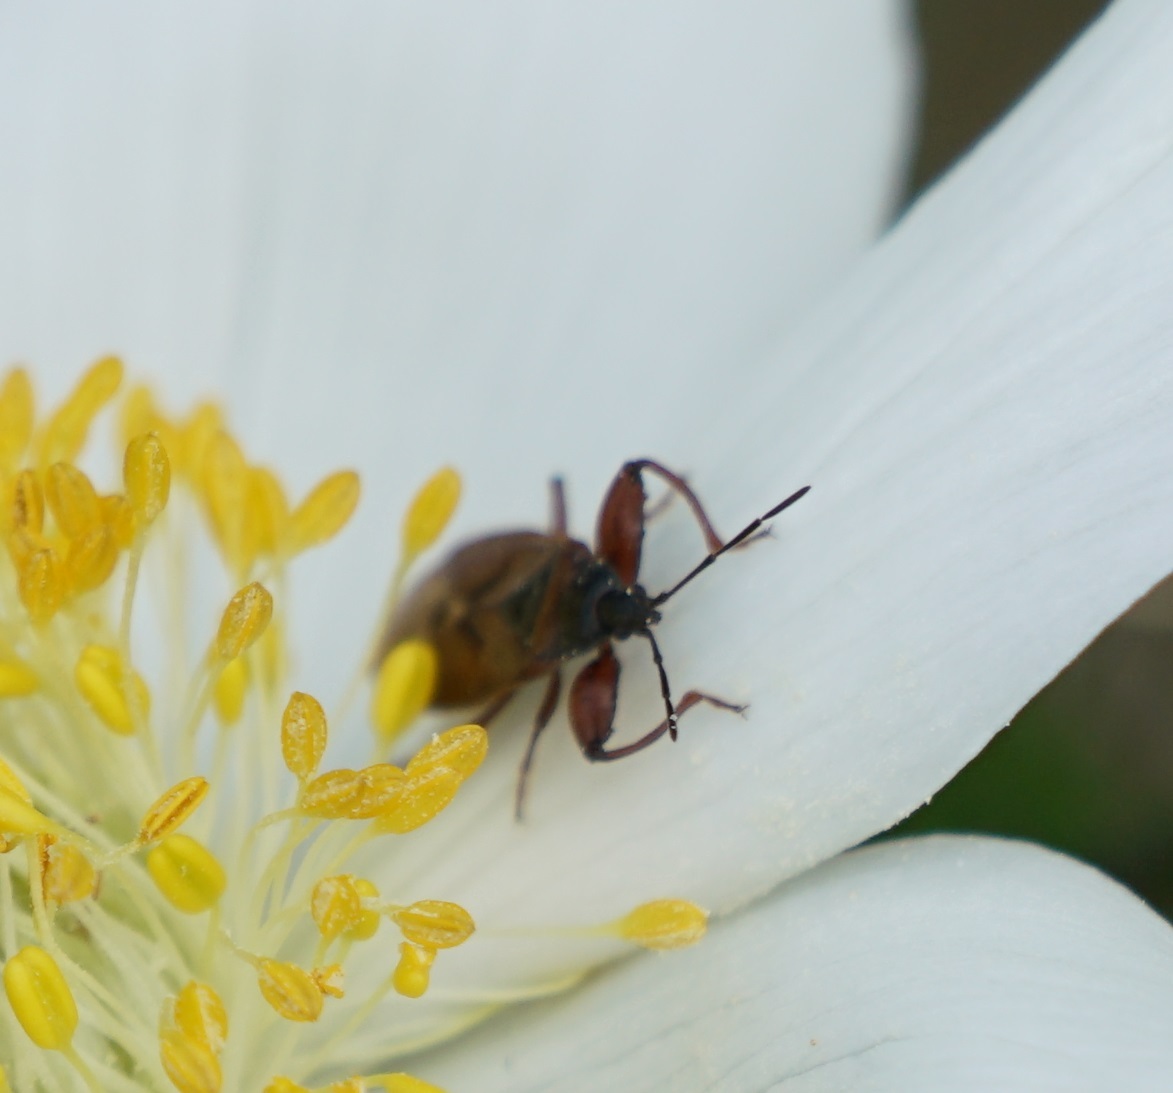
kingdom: Animalia
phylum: Arthropoda
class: Insecta
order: Hemiptera
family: Rhyparochromidae
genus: Gastrodes
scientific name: Gastrodes abietum
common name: Spruce cone bug
